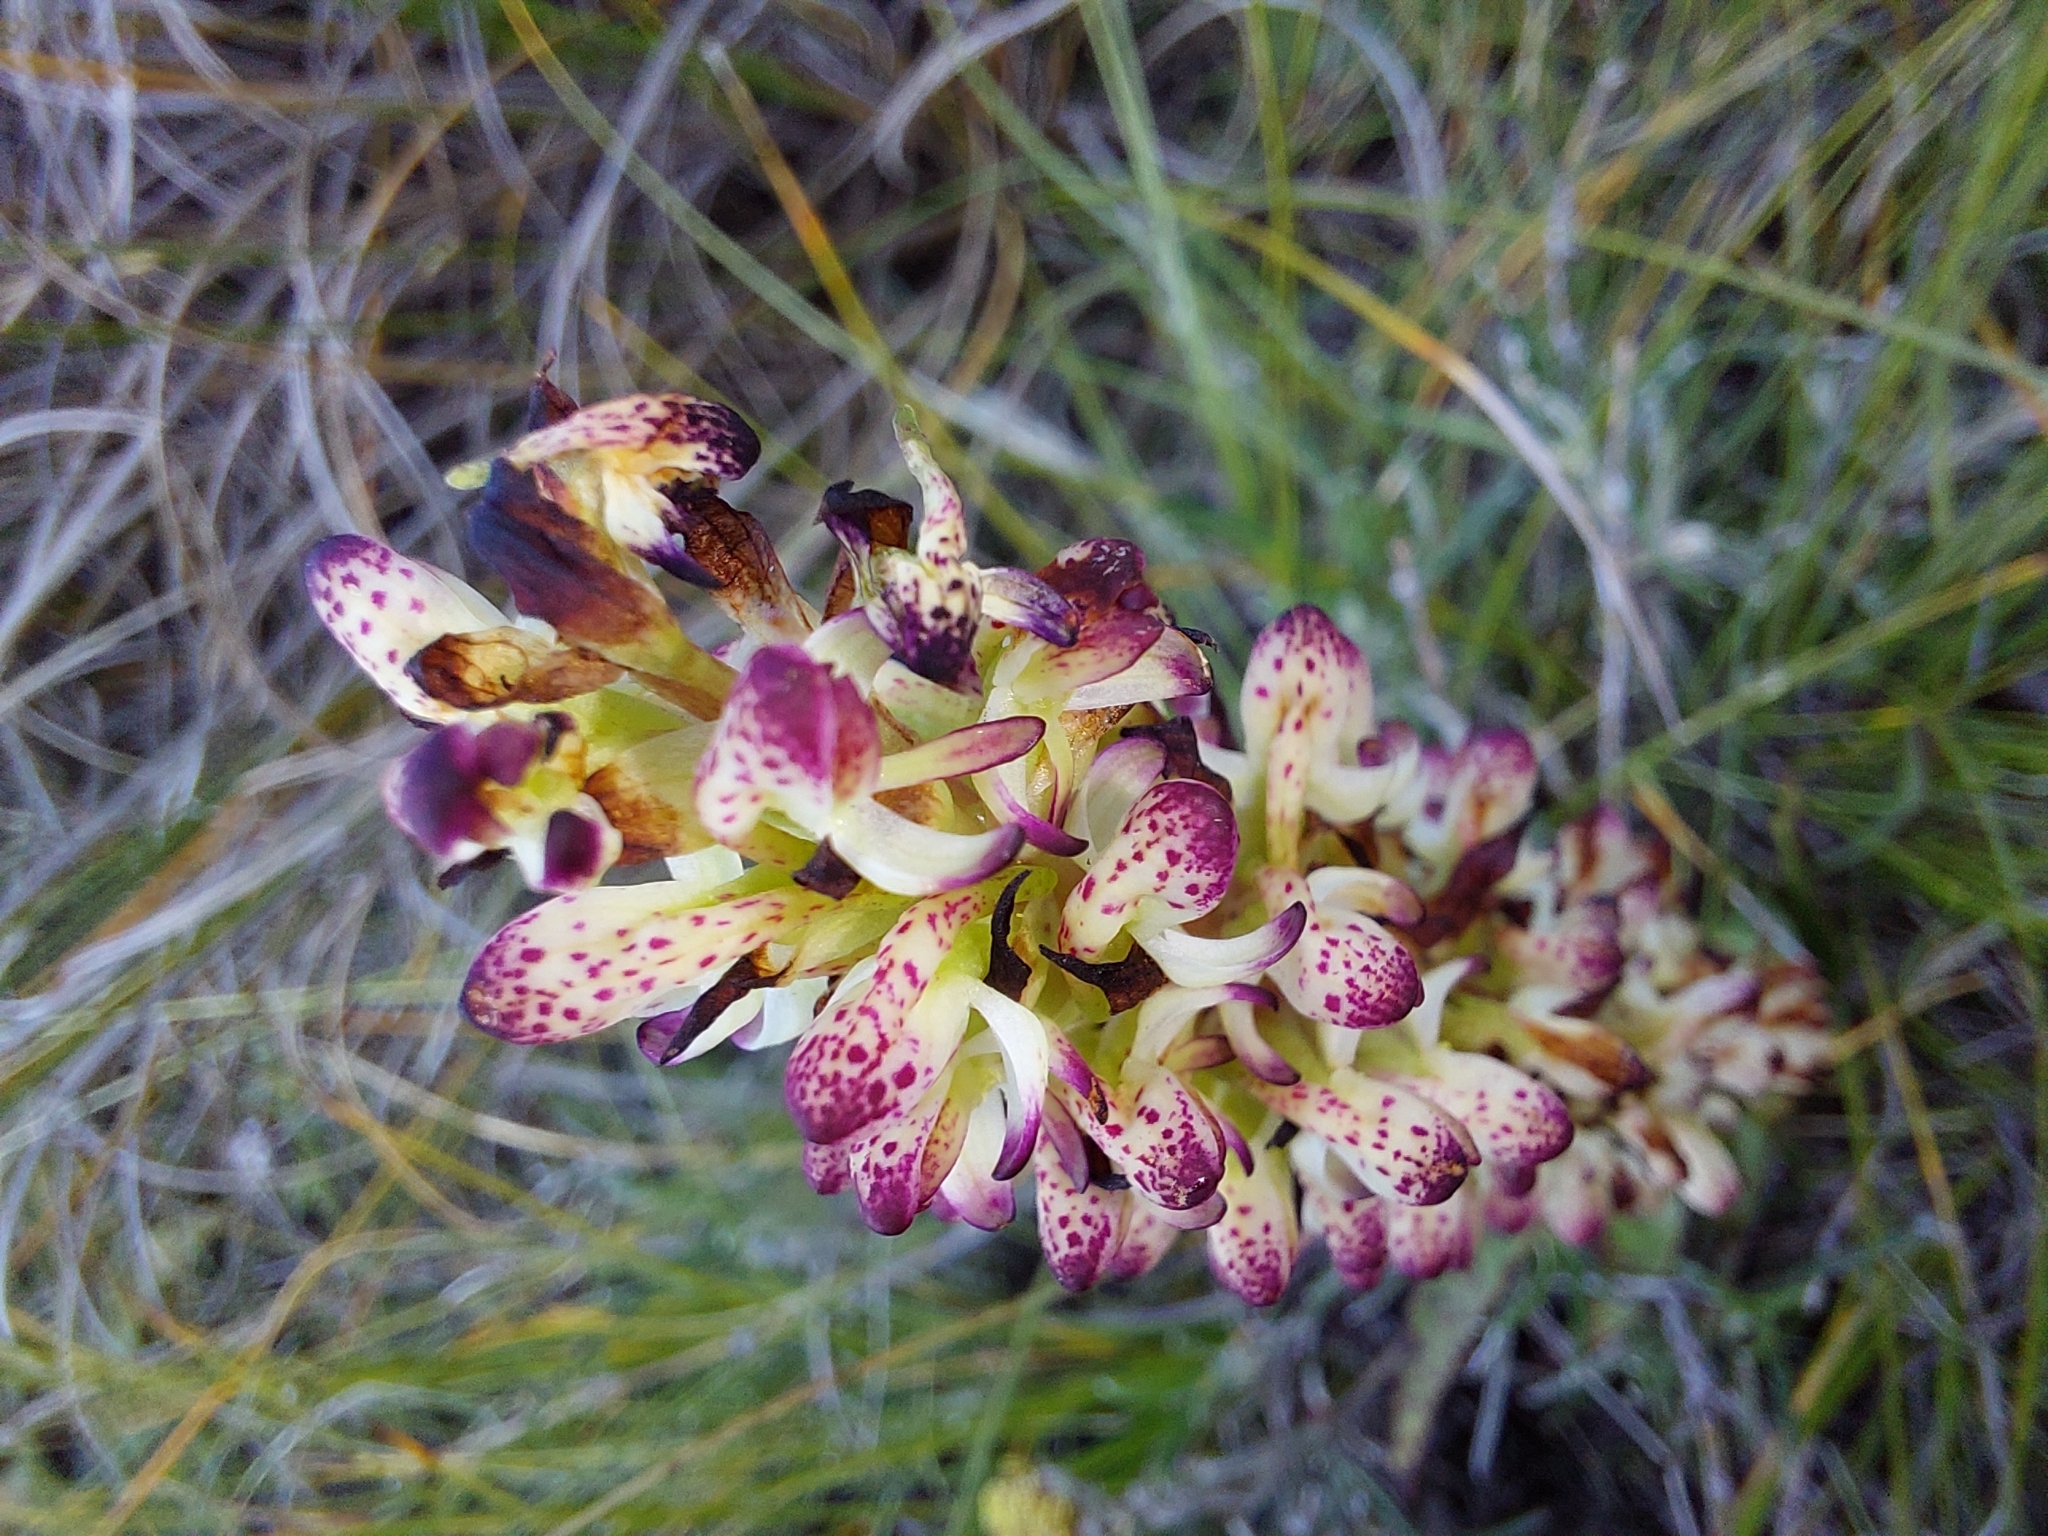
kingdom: Plantae
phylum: Tracheophyta
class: Liliopsida
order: Asparagales
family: Orchidaceae
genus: Disa
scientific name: Disa fragrans
